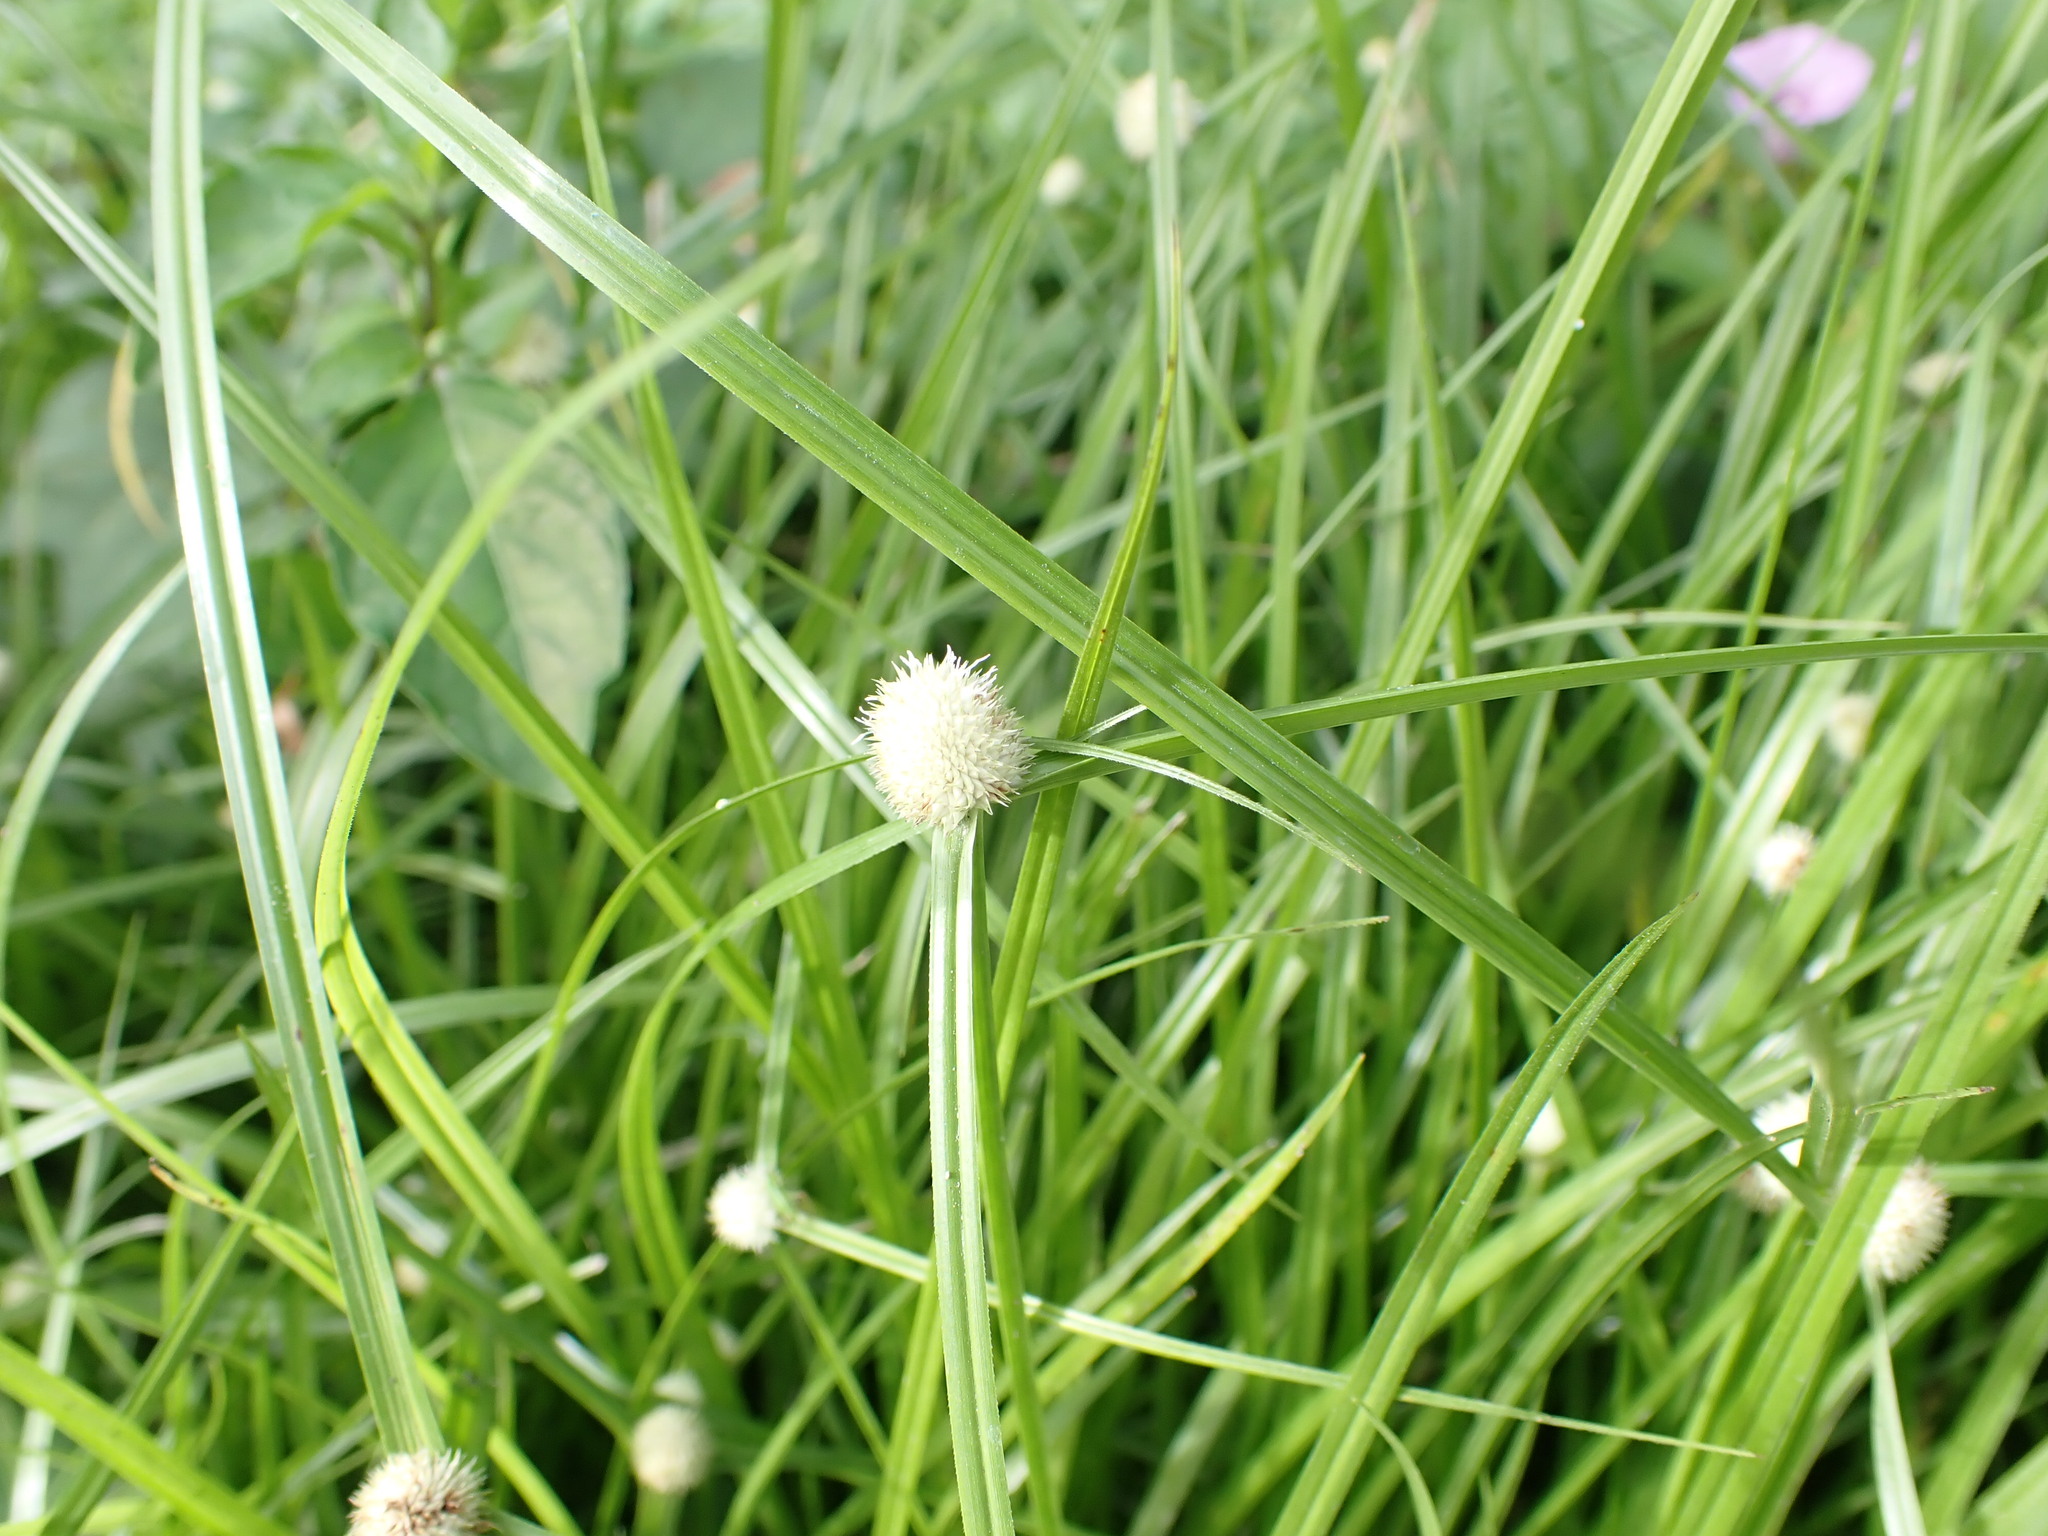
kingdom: Plantae
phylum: Tracheophyta
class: Liliopsida
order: Poales
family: Cyperaceae
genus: Cyperus
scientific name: Cyperus mindorensis
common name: Flatsedge
